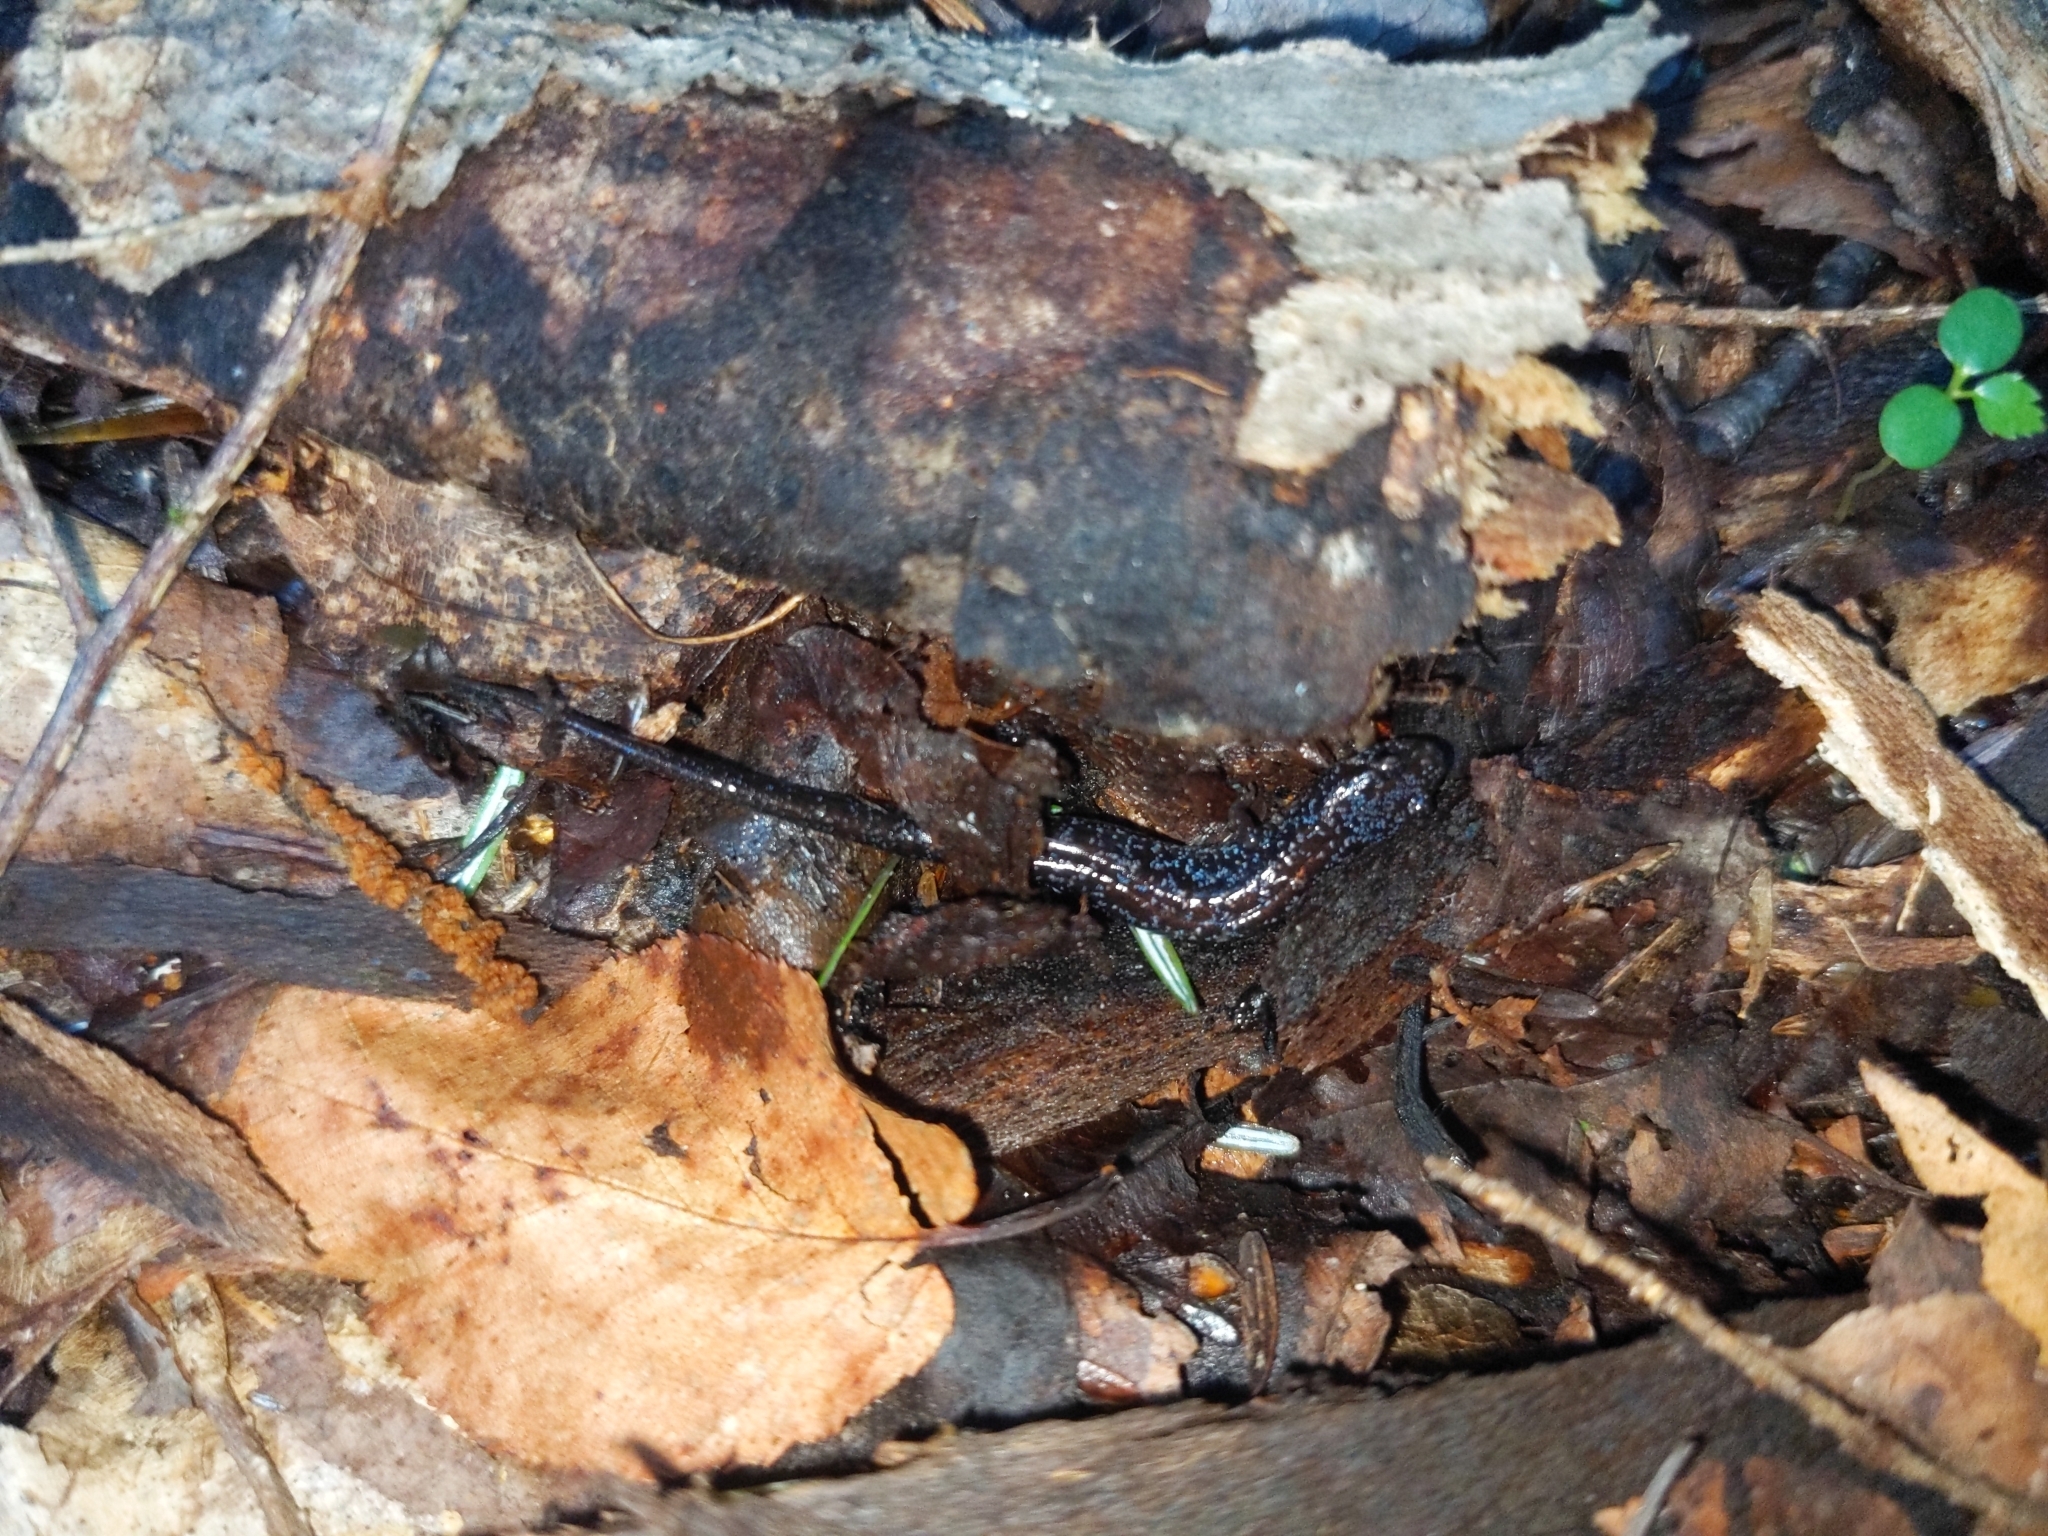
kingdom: Animalia
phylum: Chordata
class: Amphibia
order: Caudata
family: Plethodontidae
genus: Desmognathus
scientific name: Desmognathus ochrophaeus
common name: Allegheny mountain dusky salamander
